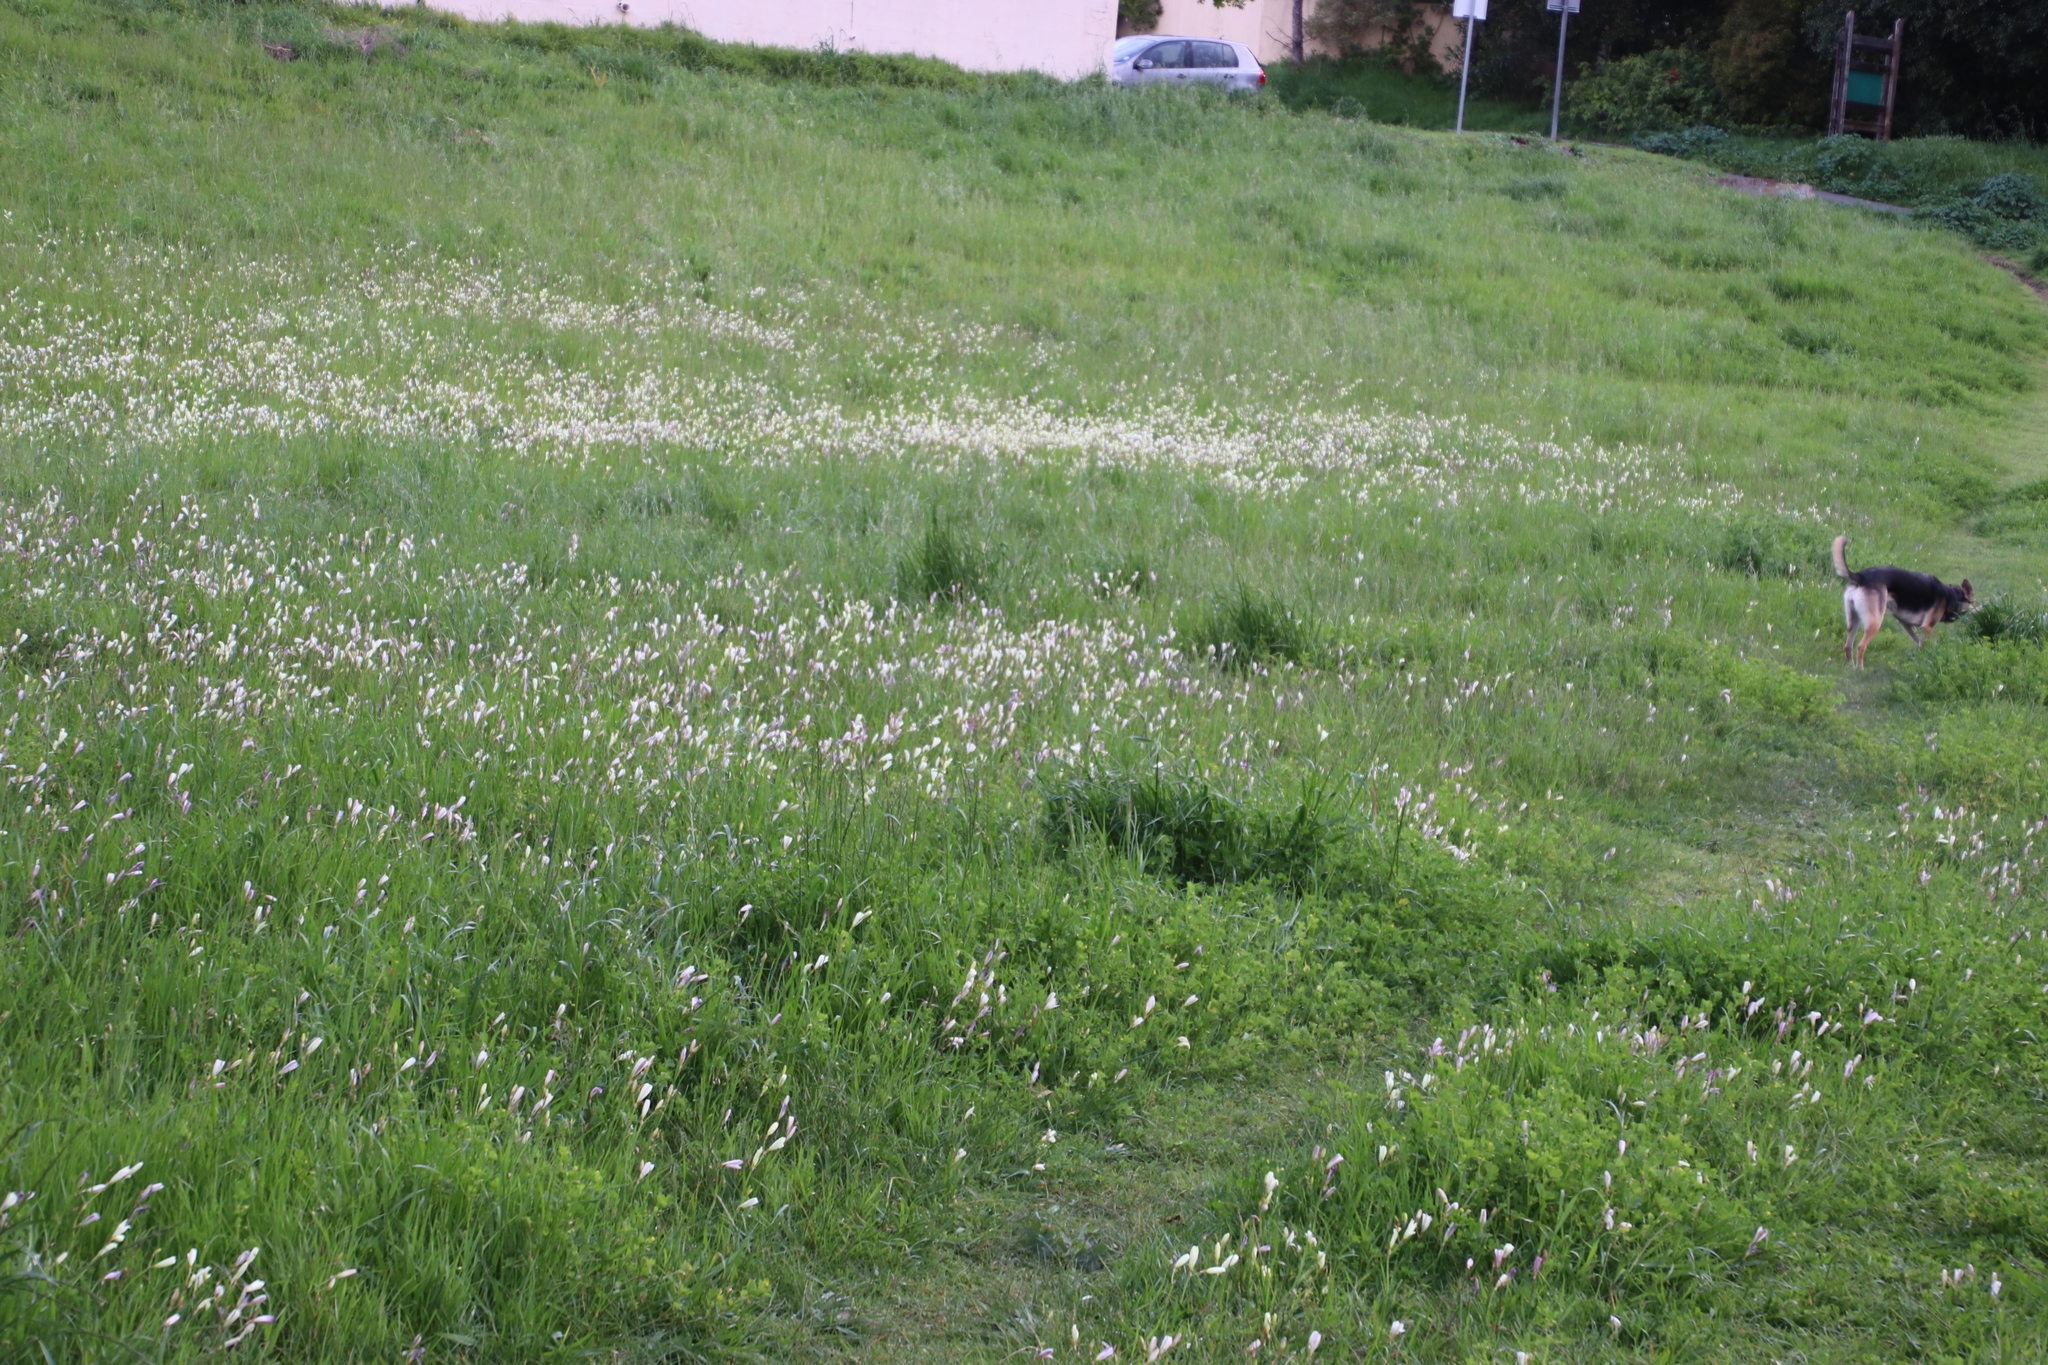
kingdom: Plantae
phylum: Tracheophyta
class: Liliopsida
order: Asparagales
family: Iridaceae
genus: Sparaxis
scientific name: Sparaxis bulbifera
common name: Harlequin-flower
